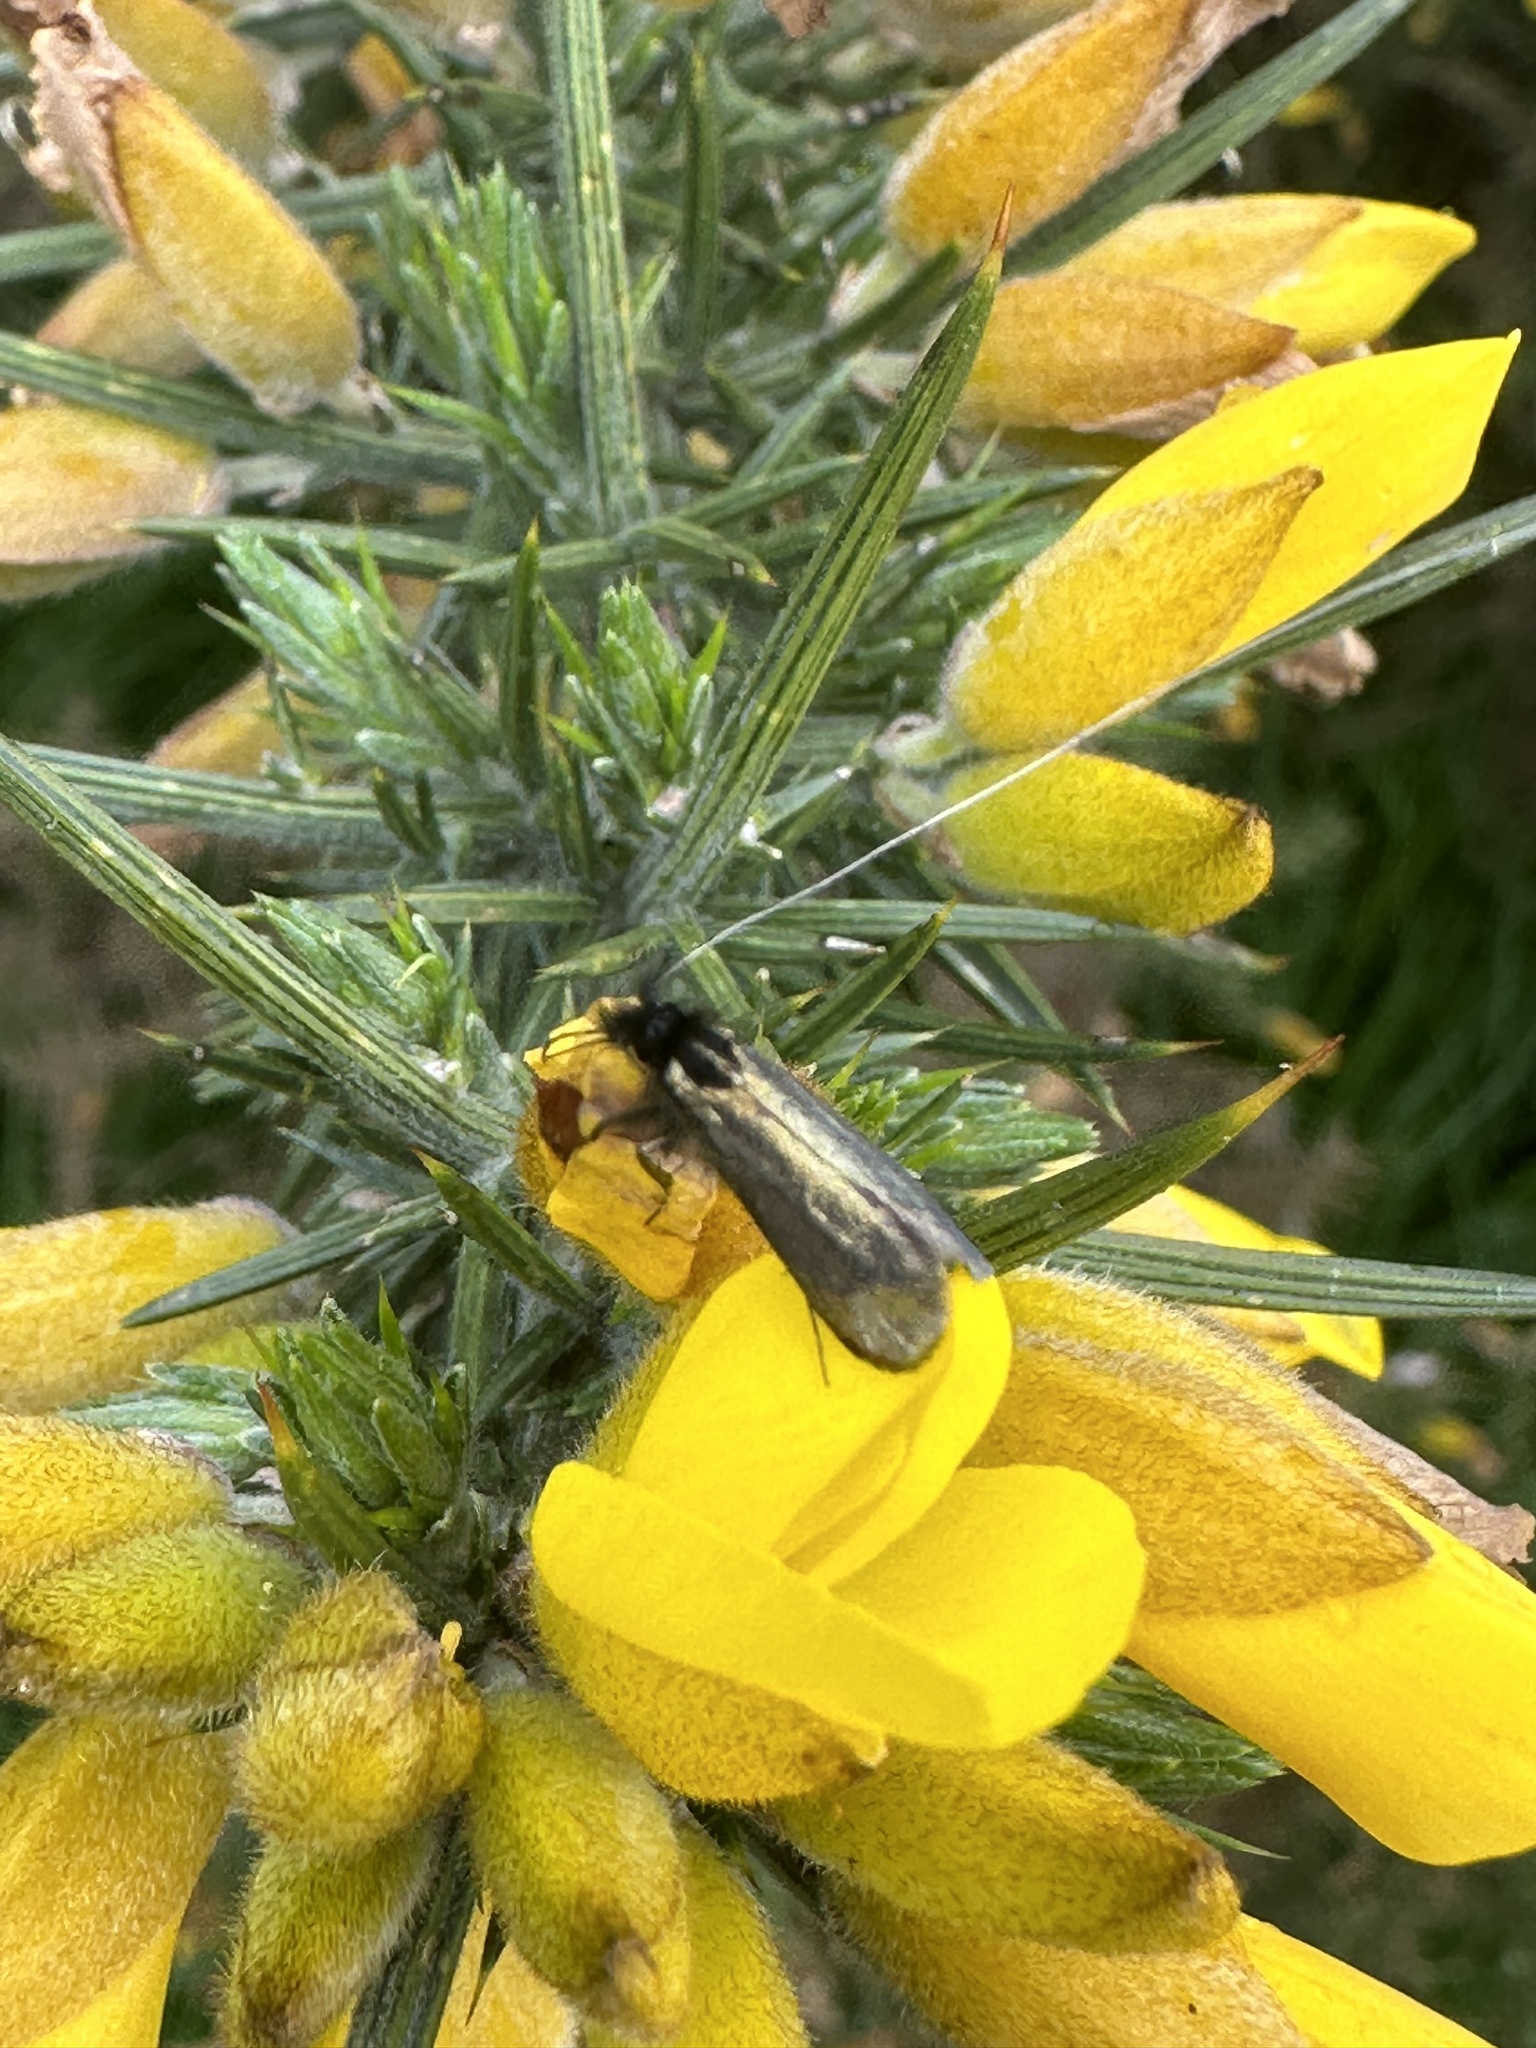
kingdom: Animalia
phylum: Arthropoda
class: Insecta
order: Lepidoptera
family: Adelidae
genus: Adela
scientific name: Adela viridella
